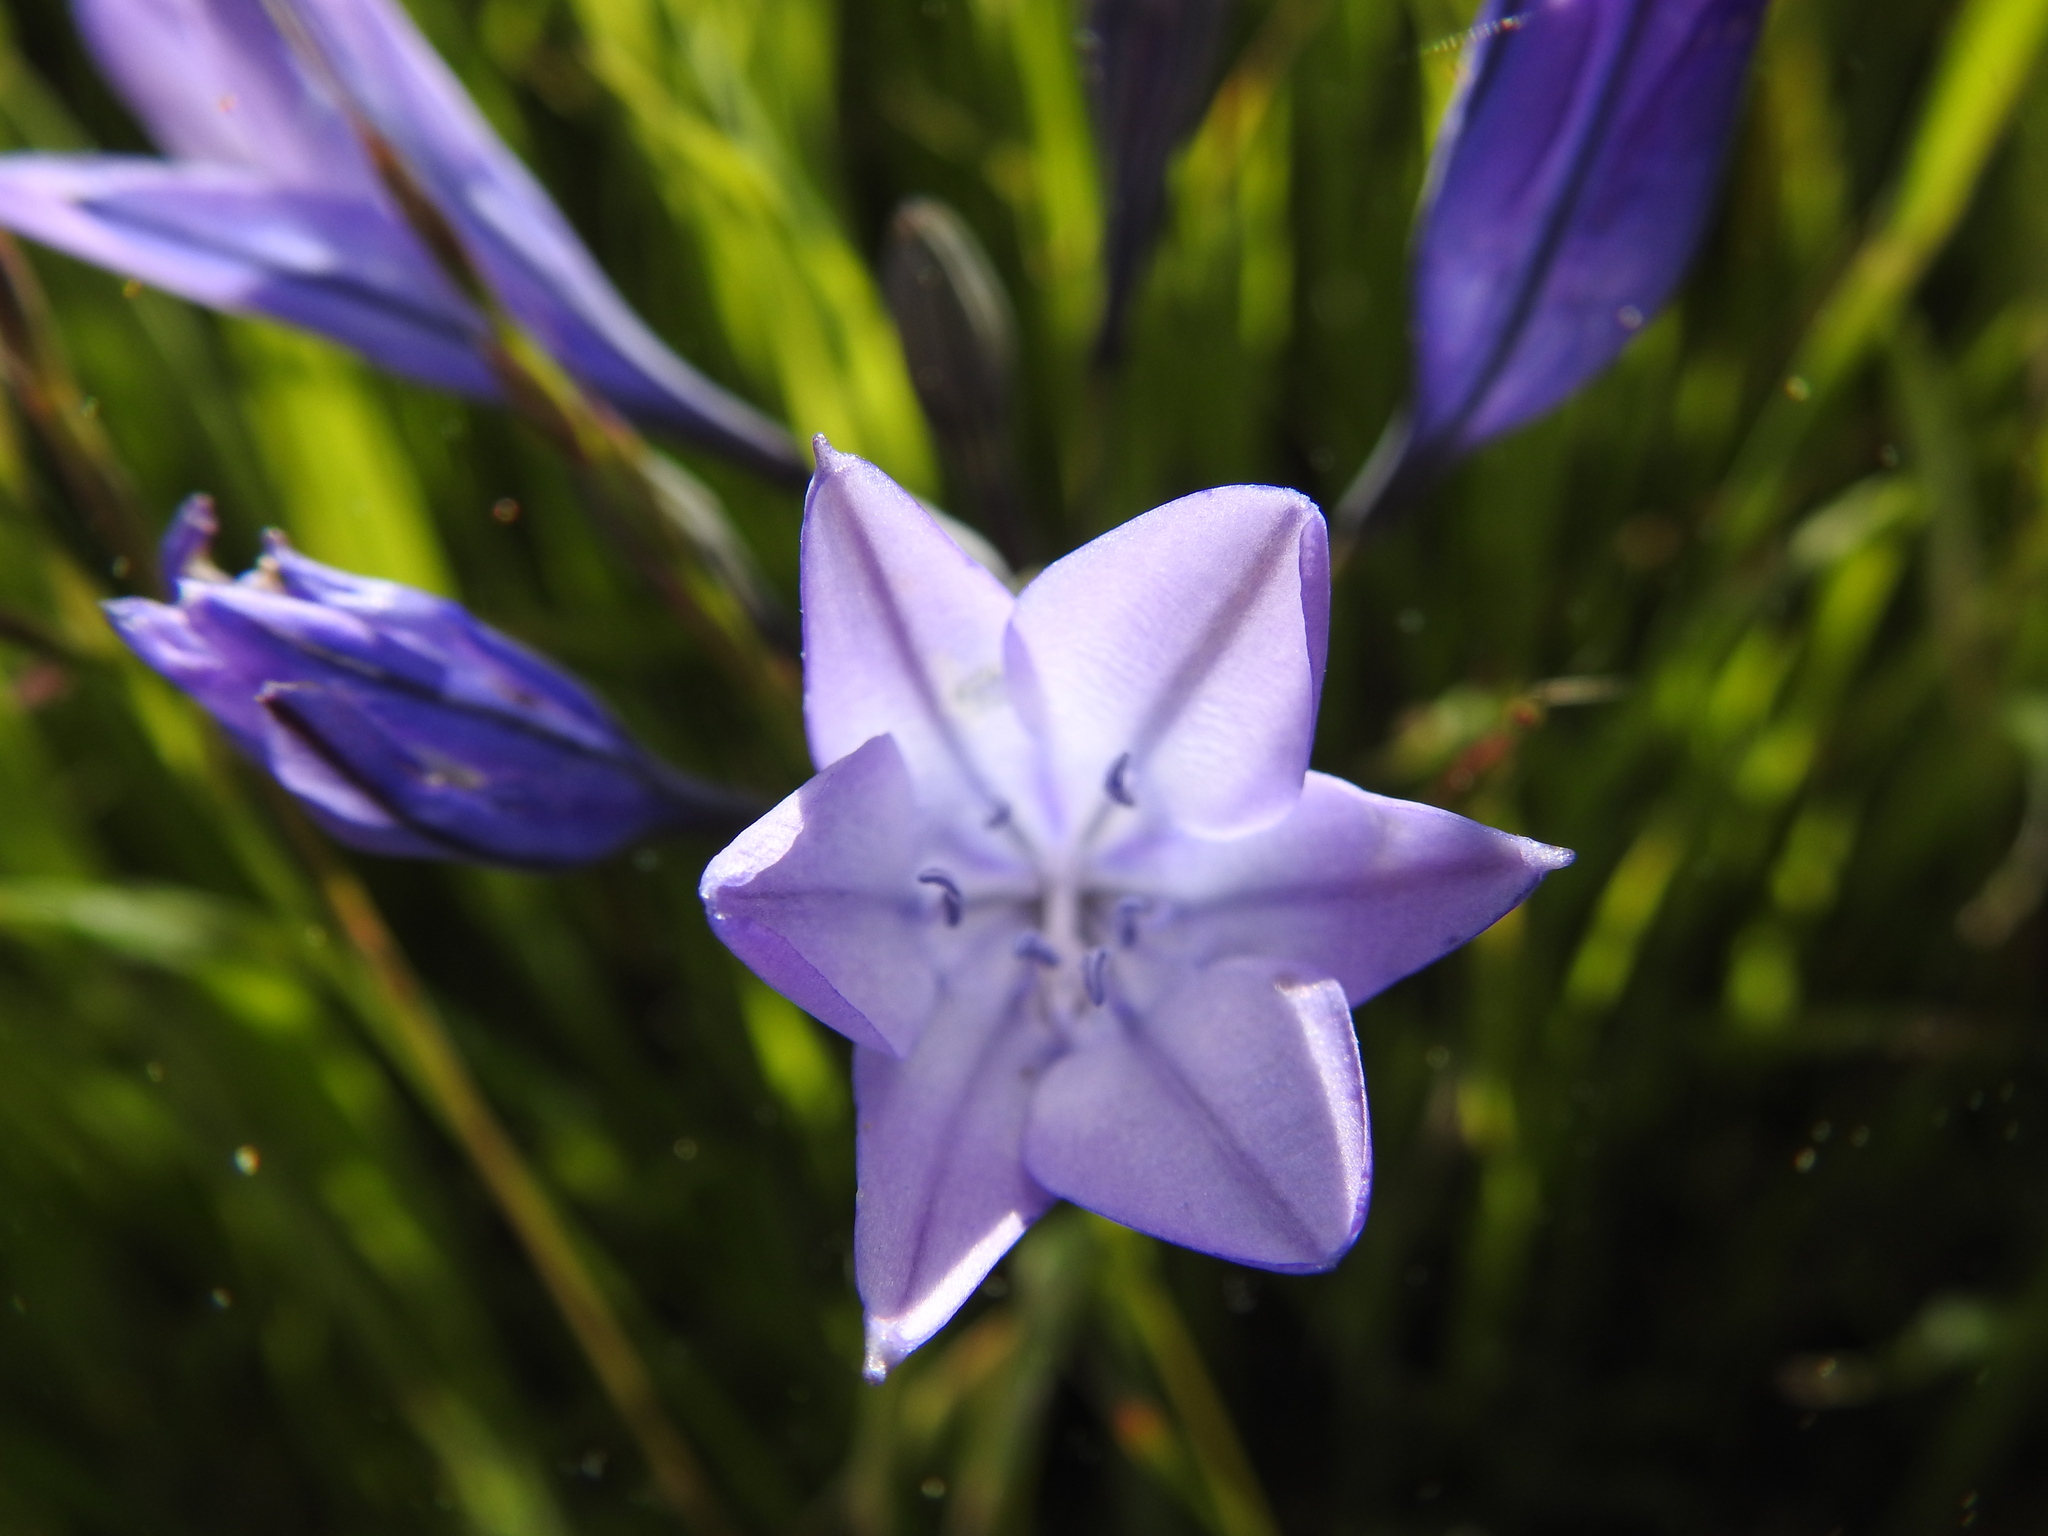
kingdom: Plantae
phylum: Tracheophyta
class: Liliopsida
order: Asparagales
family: Asparagaceae
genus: Triteleia
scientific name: Triteleia laxa
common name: Triplet-lily
